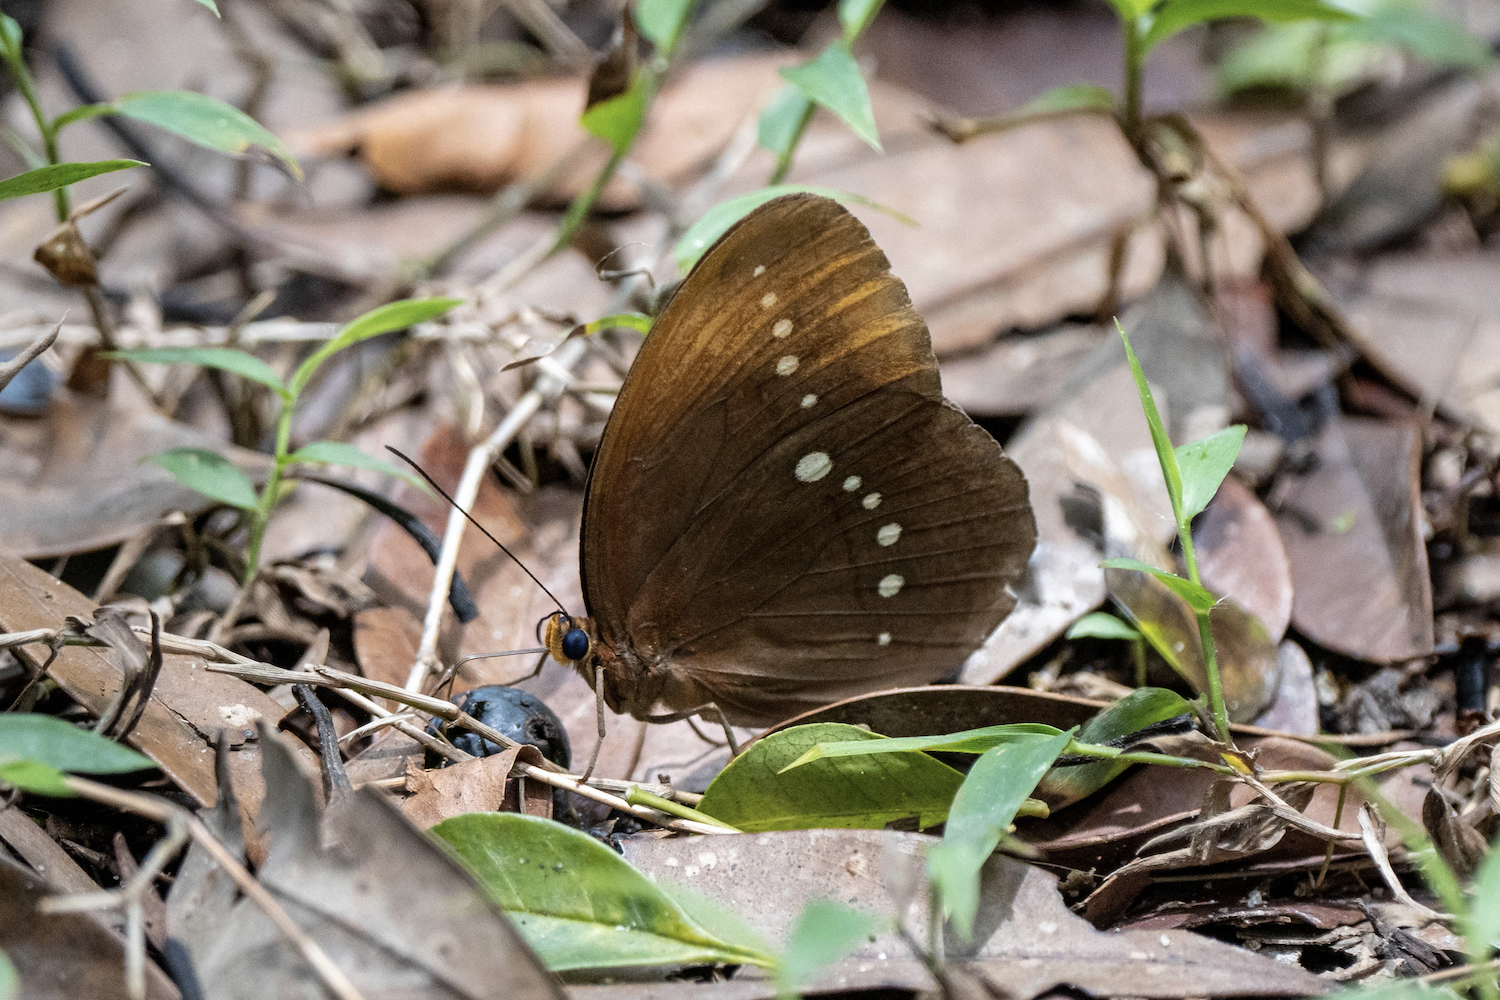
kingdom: Animalia
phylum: Arthropoda
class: Insecta
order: Lepidoptera
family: Nymphalidae
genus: Faunis
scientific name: Faunis eumeus
